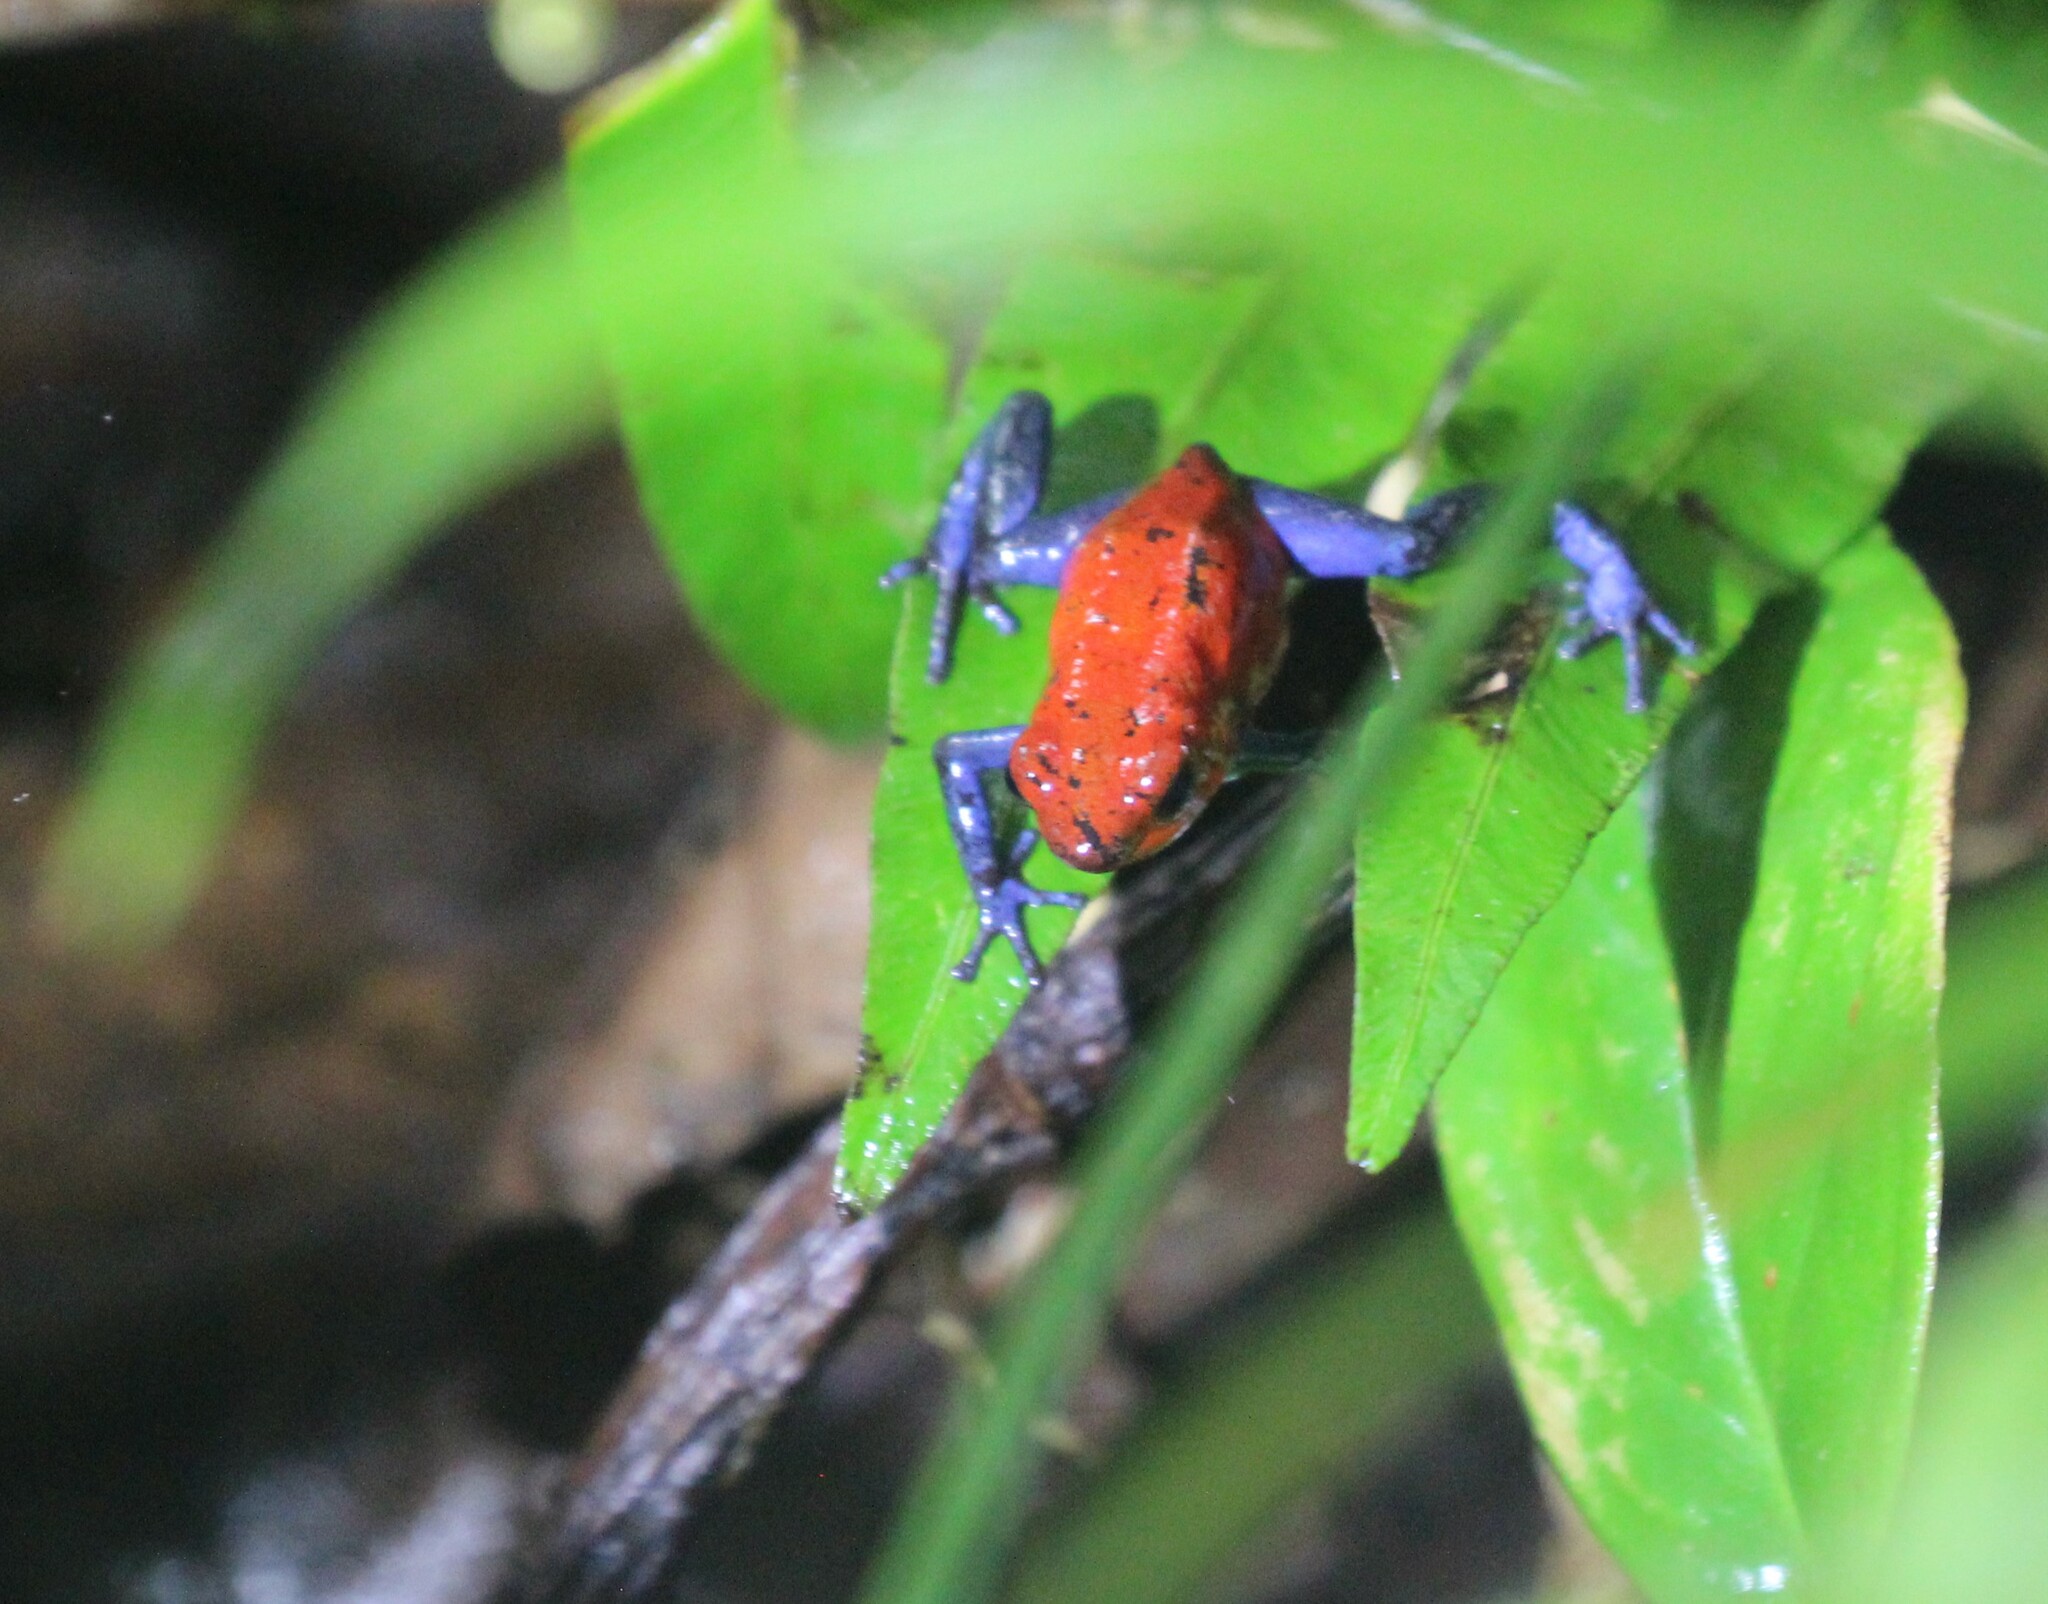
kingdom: Animalia
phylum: Chordata
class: Amphibia
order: Anura
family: Dendrobatidae
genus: Oophaga
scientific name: Oophaga pumilio
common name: Flaming poison frog
